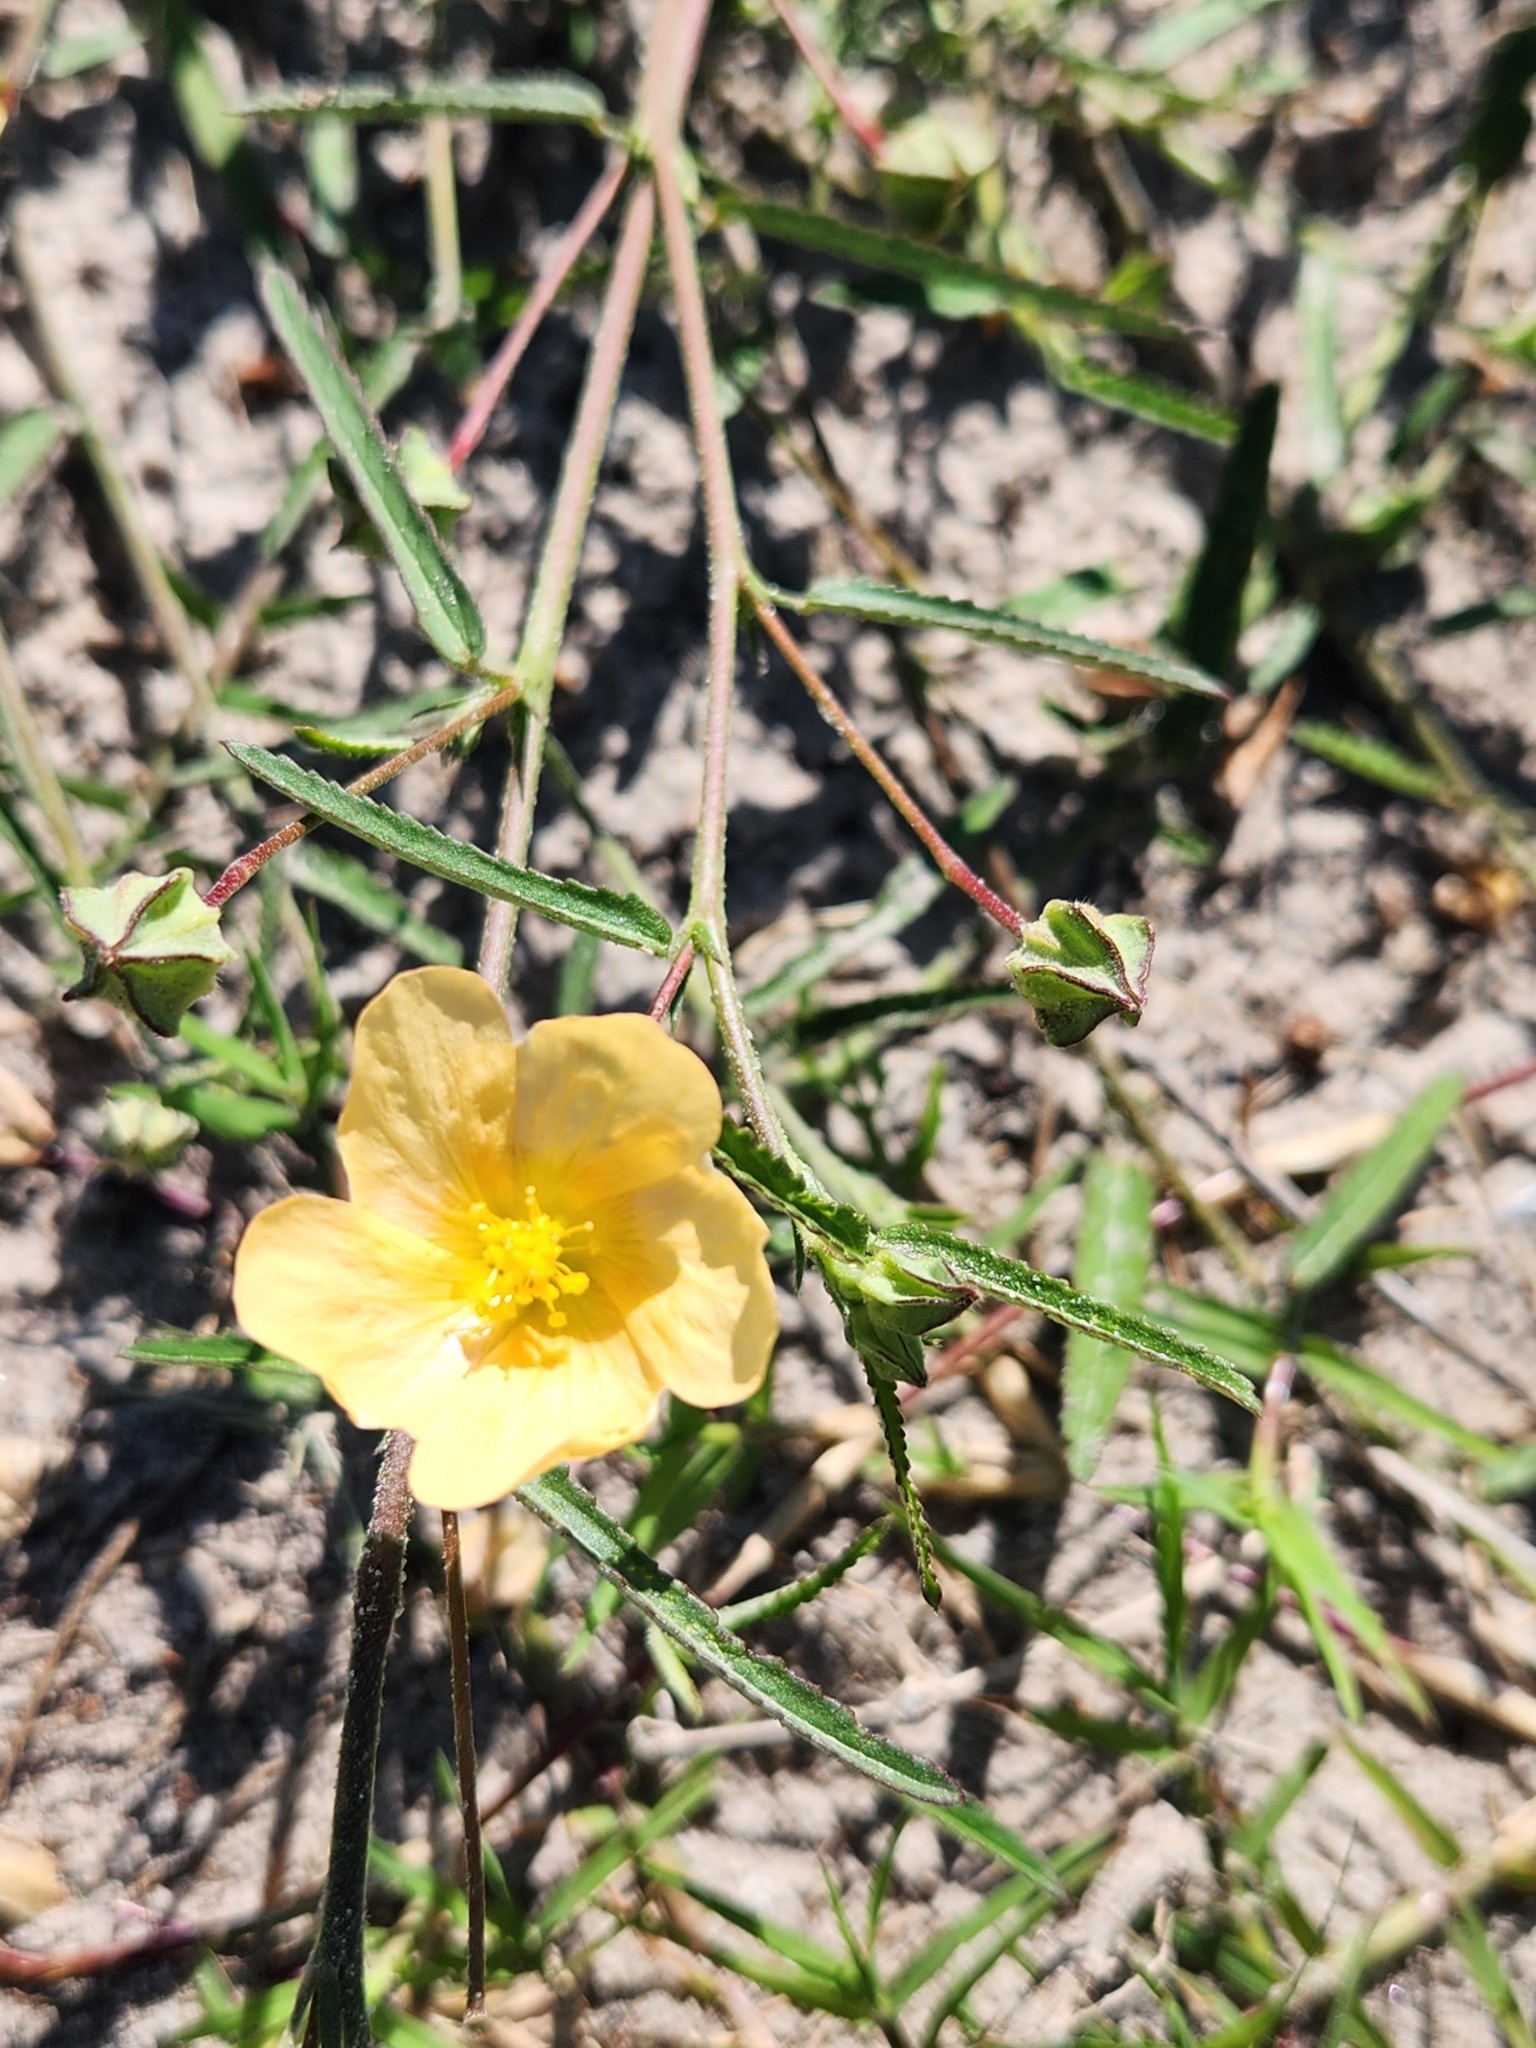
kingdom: Plantae
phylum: Tracheophyta
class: Magnoliopsida
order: Malvales
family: Malvaceae
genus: Sida
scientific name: Sida abutilifolia
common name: Spreading fanpetals
